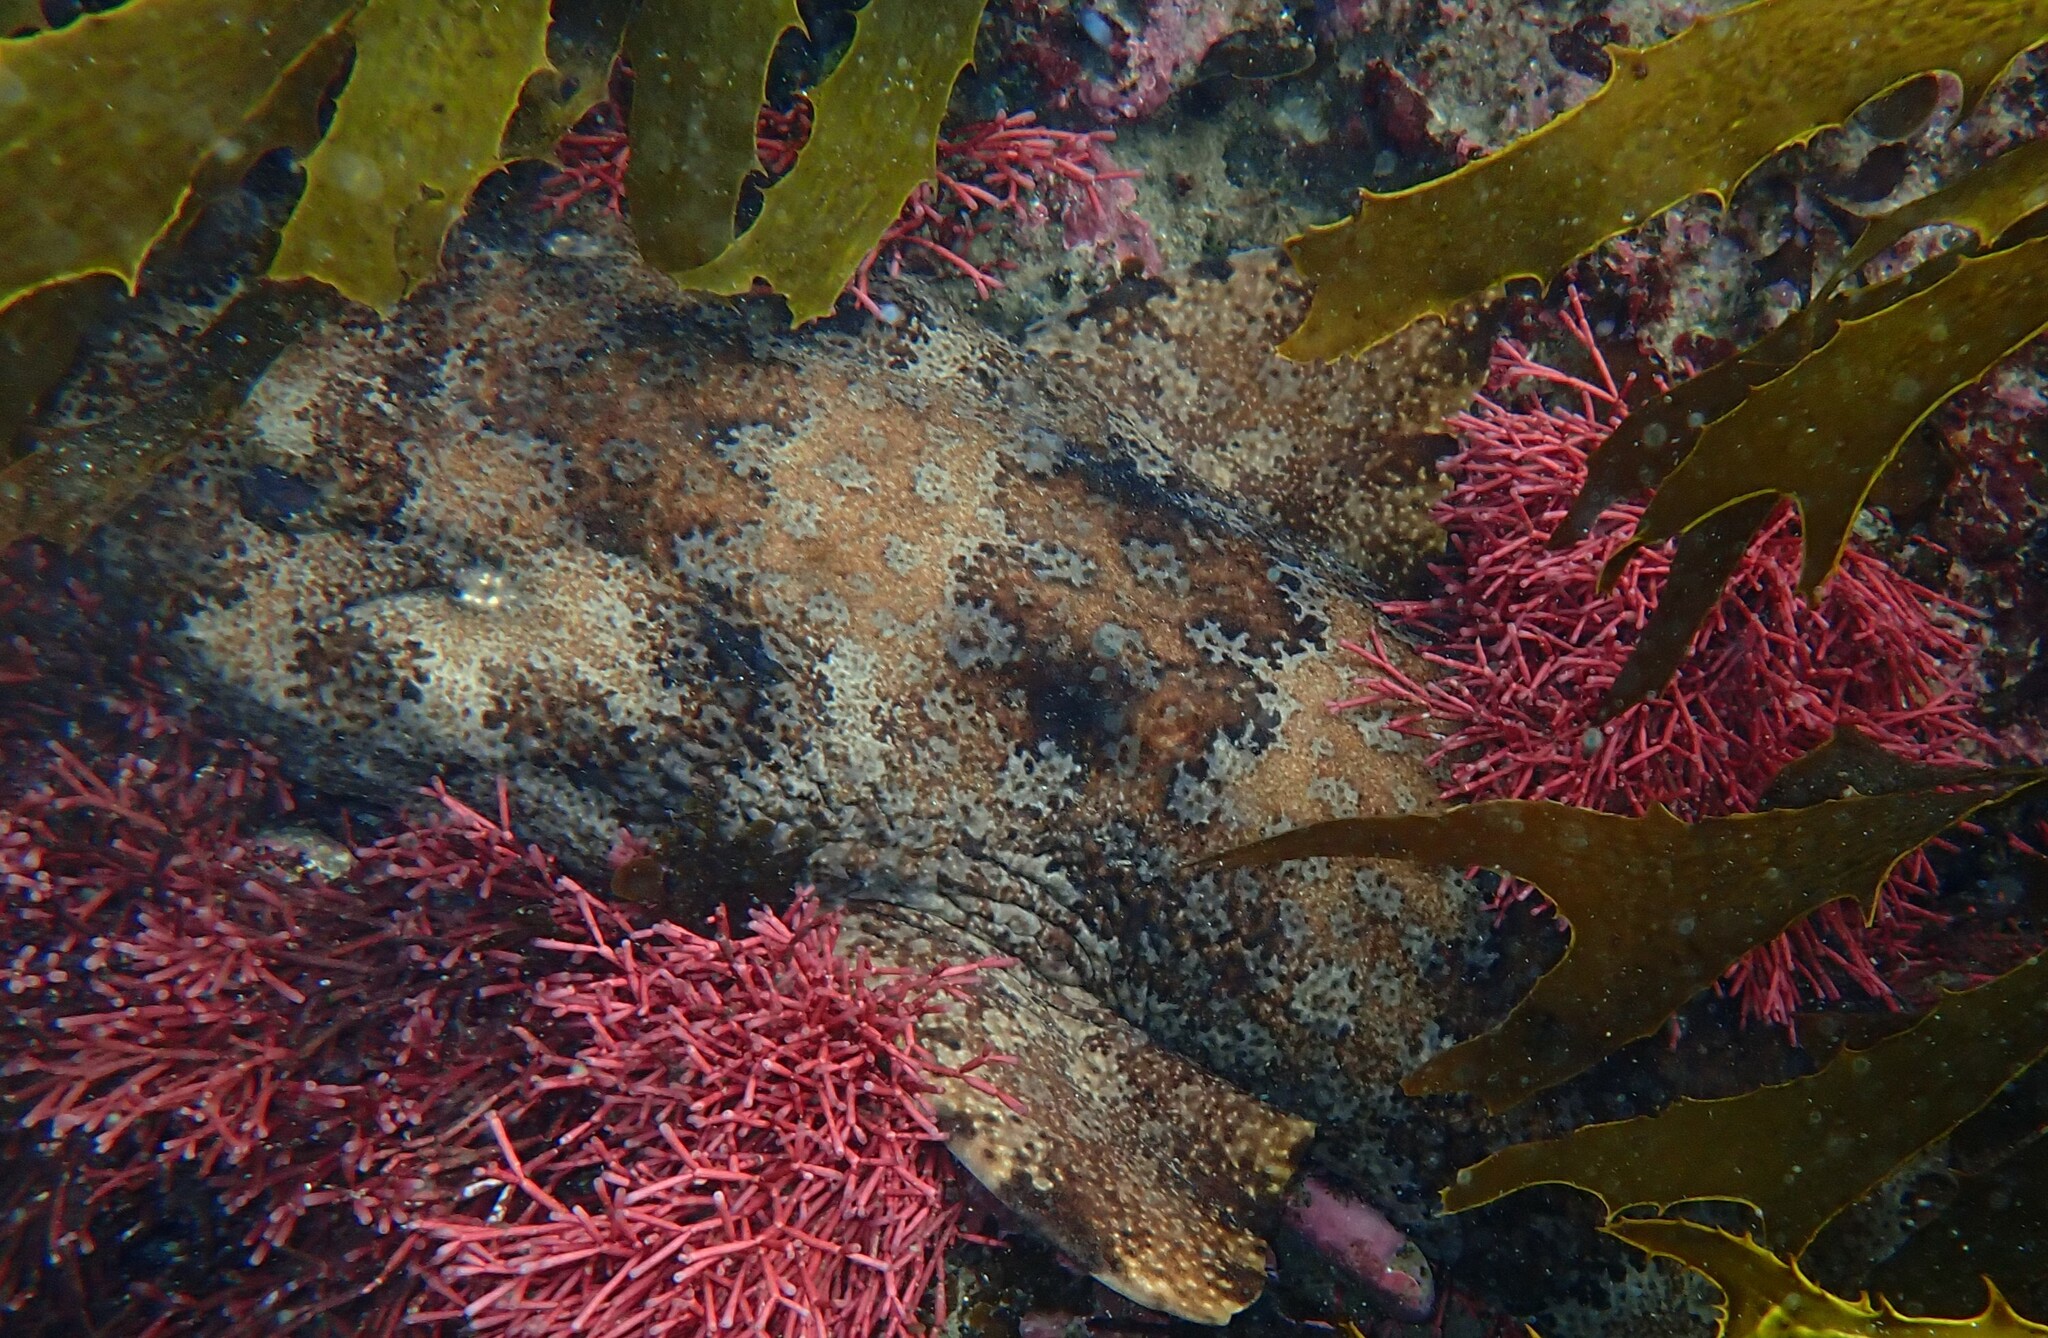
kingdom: Animalia
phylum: Chordata
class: Elasmobranchii
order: Orectolobiformes
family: Orectolobidae
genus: Orectolobus
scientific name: Orectolobus ornatus
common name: Ornate wobbegong
